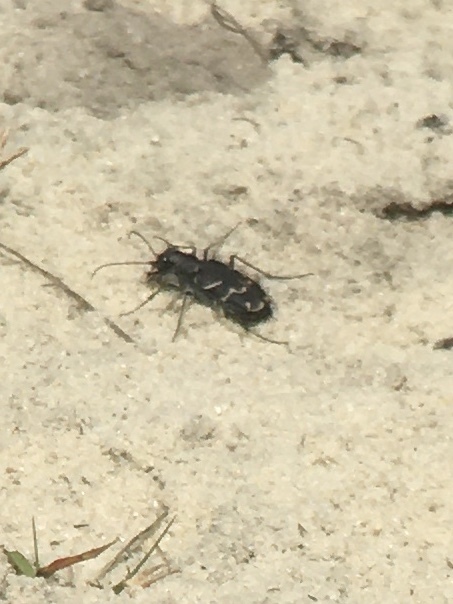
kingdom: Animalia
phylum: Arthropoda
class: Insecta
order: Coleoptera
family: Carabidae
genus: Cicindela
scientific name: Cicindela tranquebarica
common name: Oblique-lined tiger beetle
